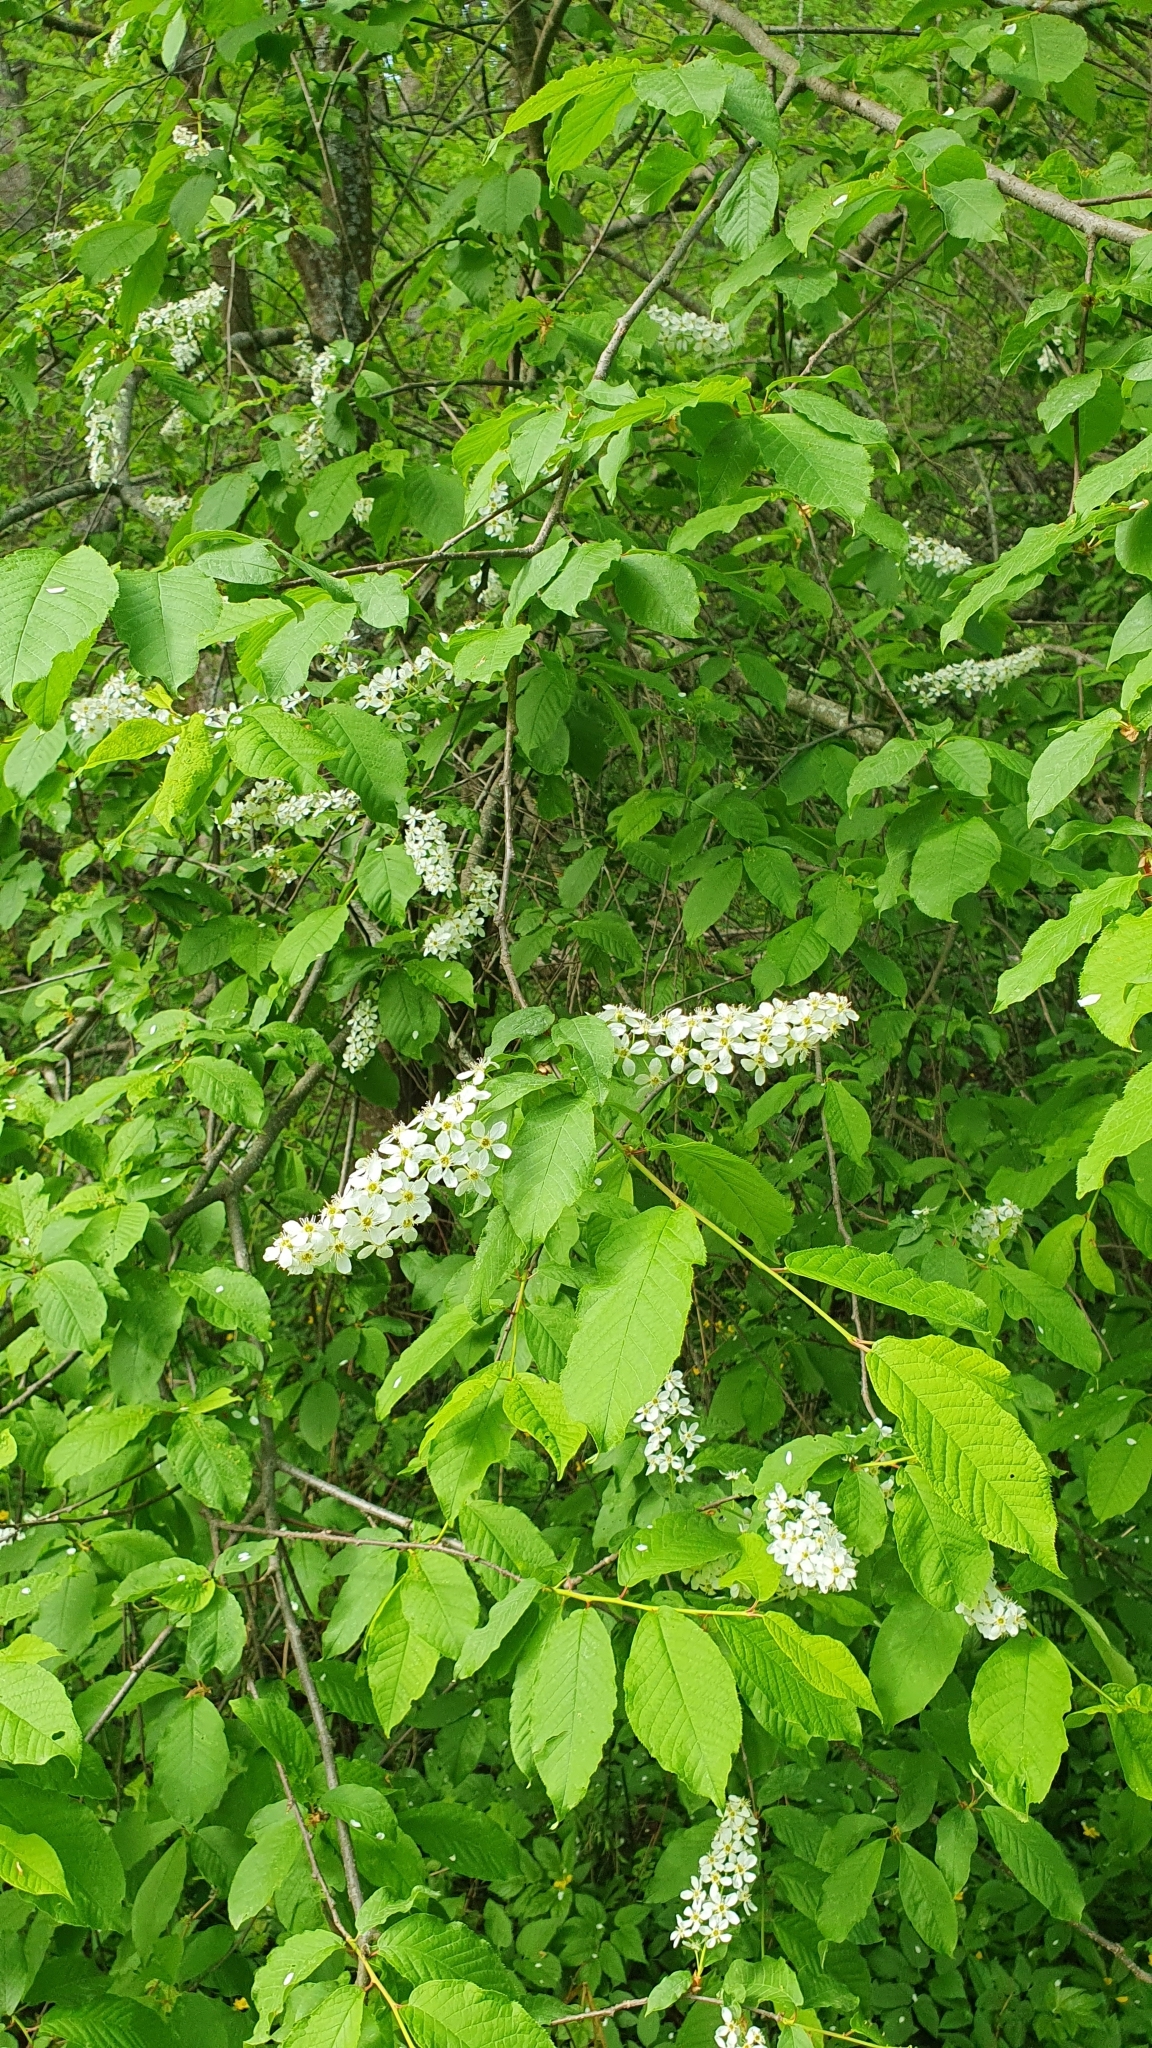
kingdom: Plantae
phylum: Tracheophyta
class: Magnoliopsida
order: Rosales
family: Rosaceae
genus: Prunus
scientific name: Prunus padus
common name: Bird cherry
